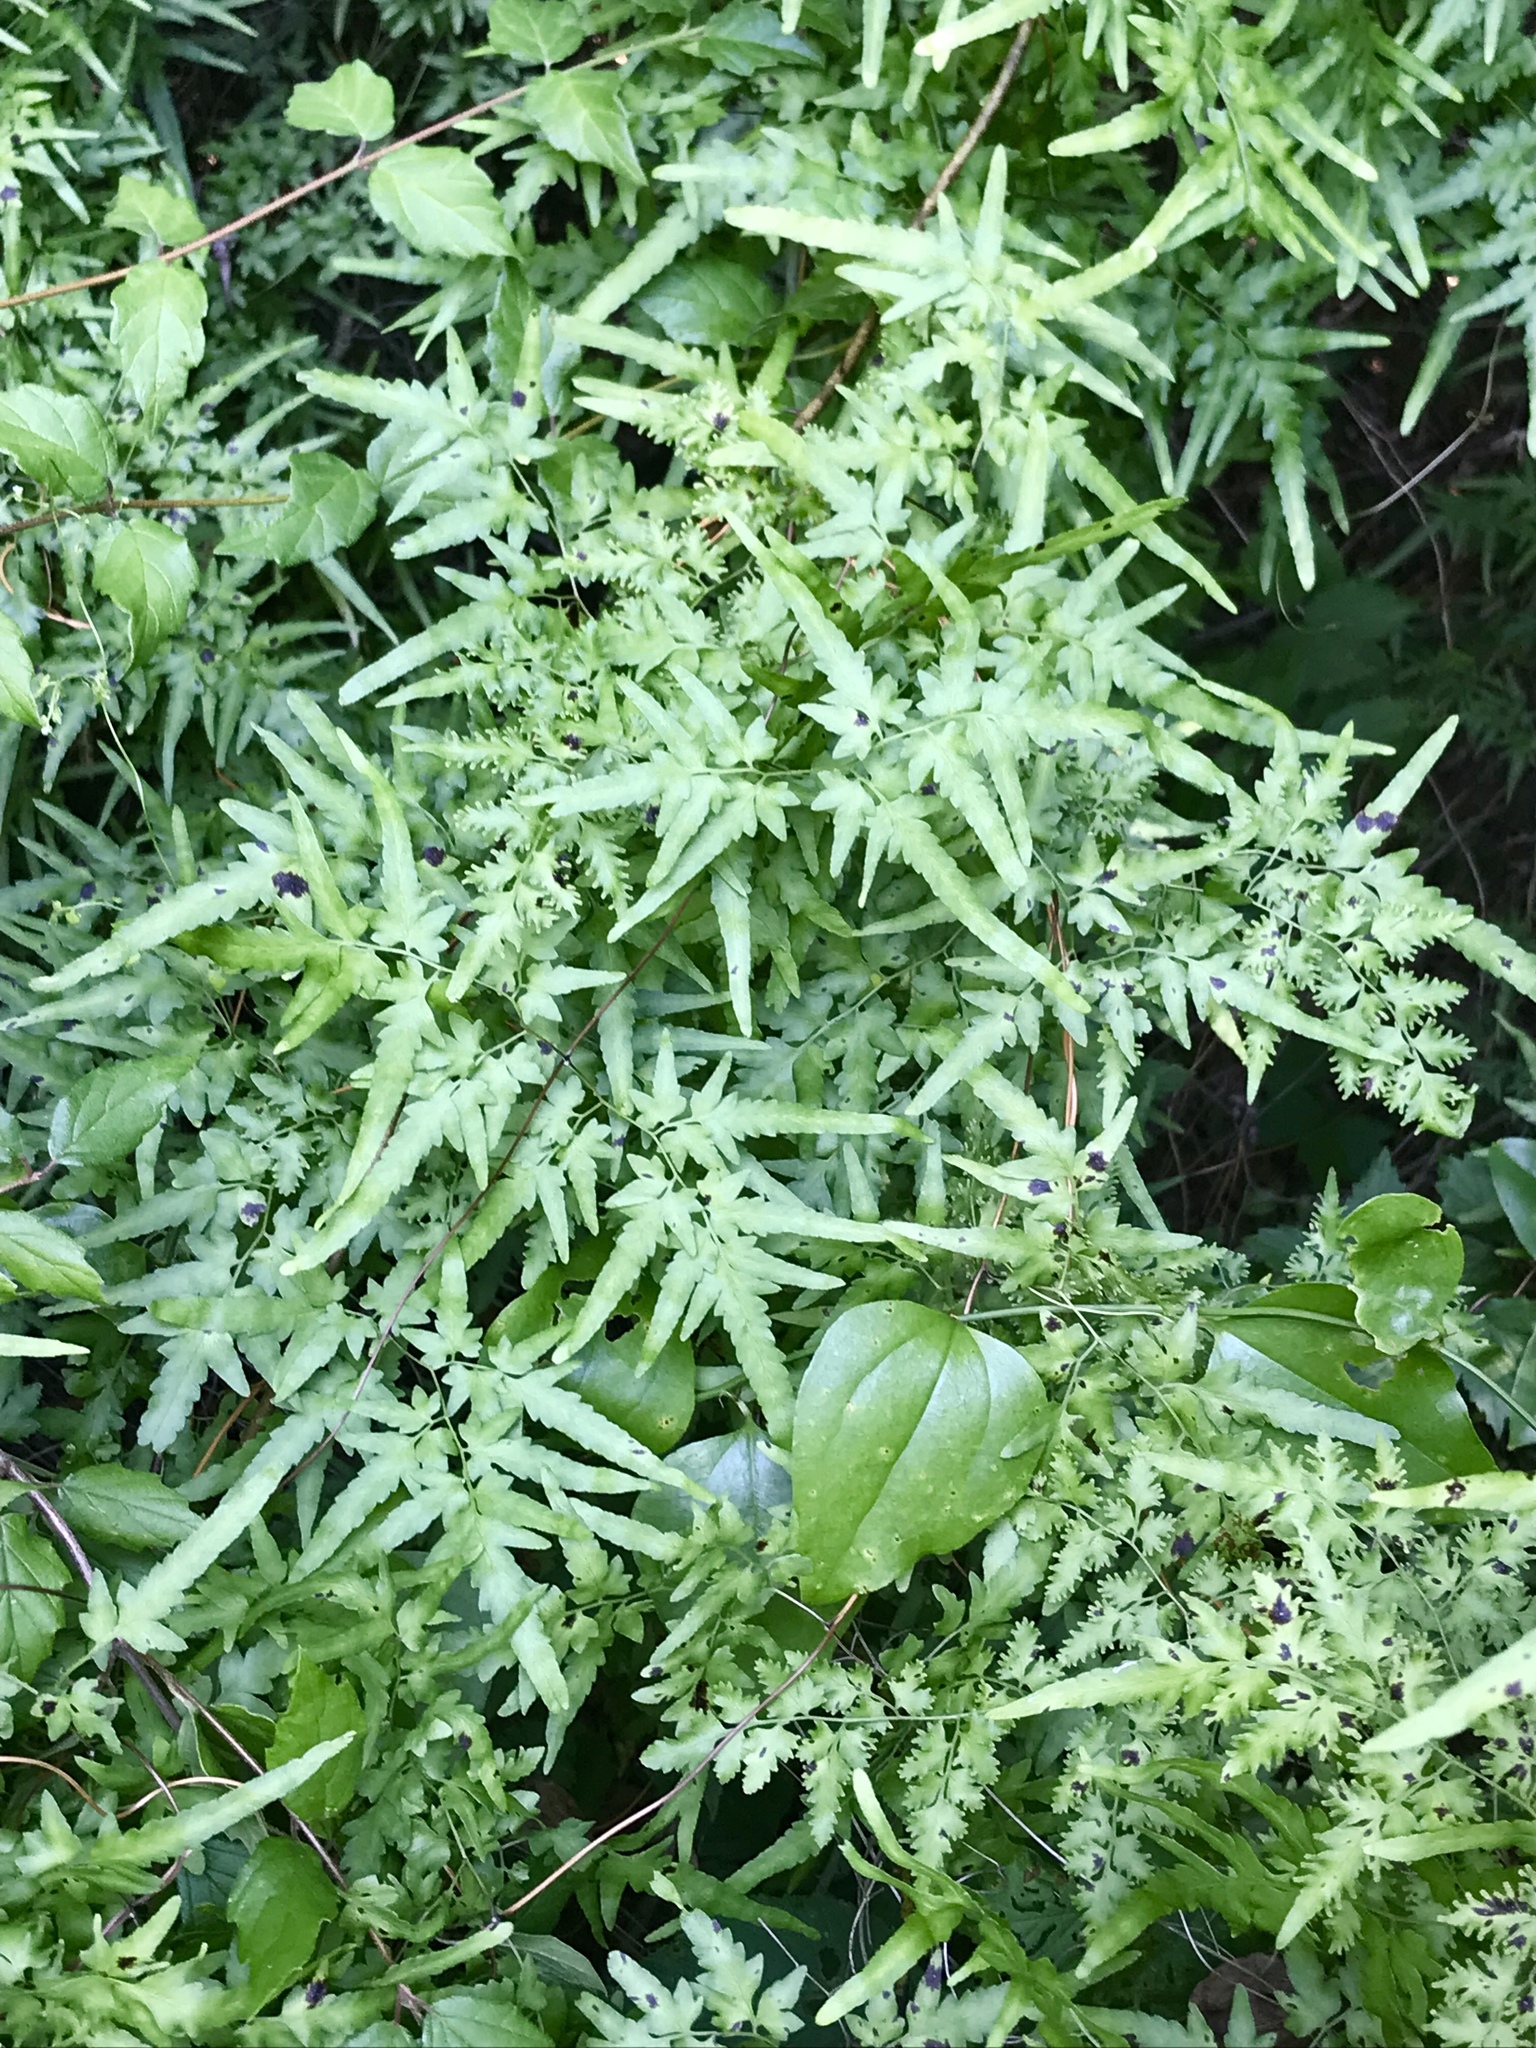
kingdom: Plantae
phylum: Tracheophyta
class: Polypodiopsida
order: Schizaeales
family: Lygodiaceae
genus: Lygodium
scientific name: Lygodium japonicum
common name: Japanese climbing fern
